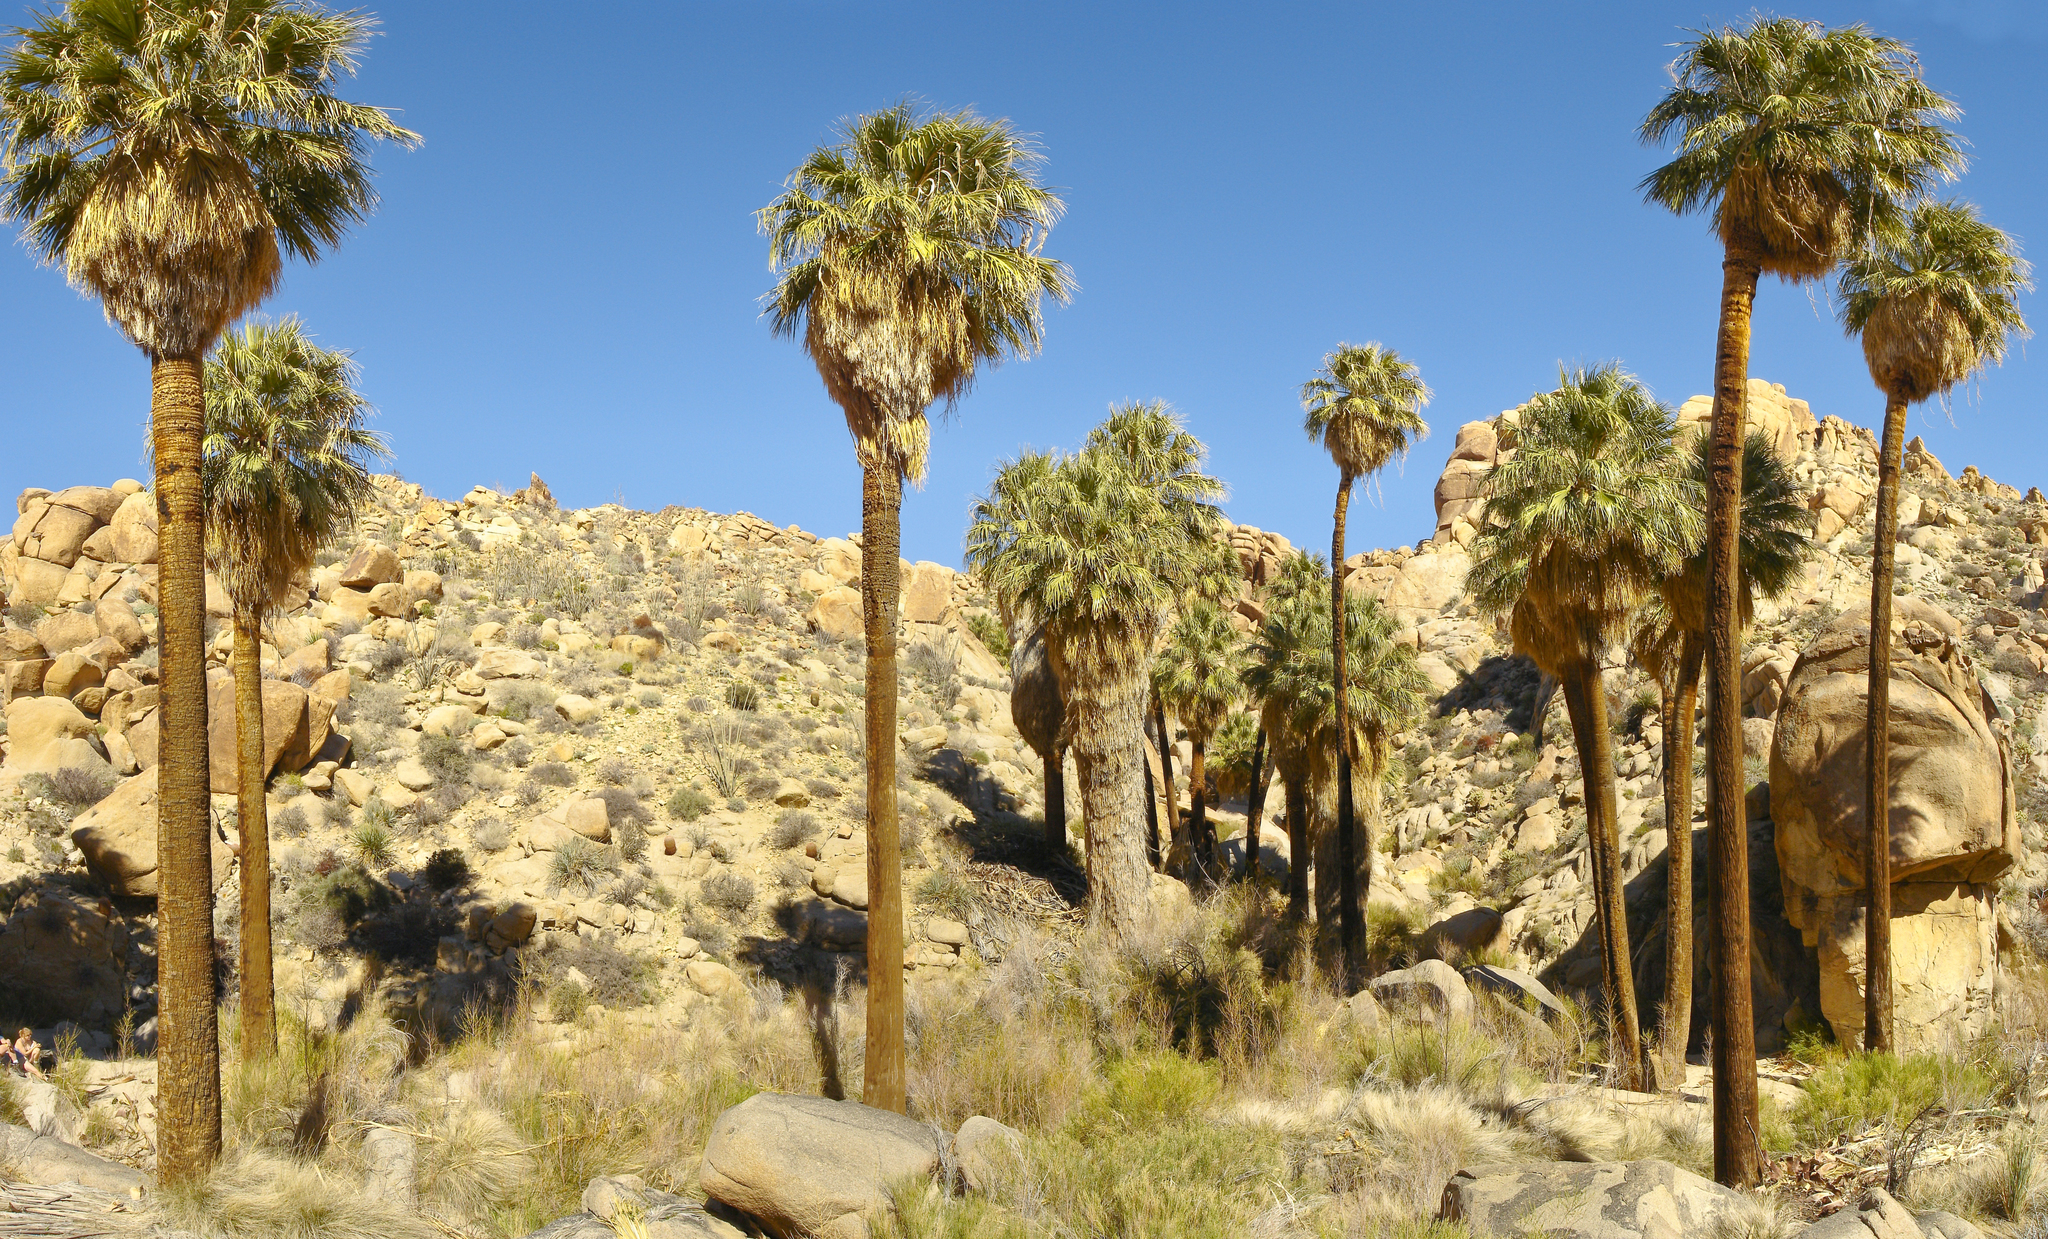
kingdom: Plantae
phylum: Tracheophyta
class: Liliopsida
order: Arecales
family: Arecaceae
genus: Washingtonia
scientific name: Washingtonia filifera
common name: California fan palm
